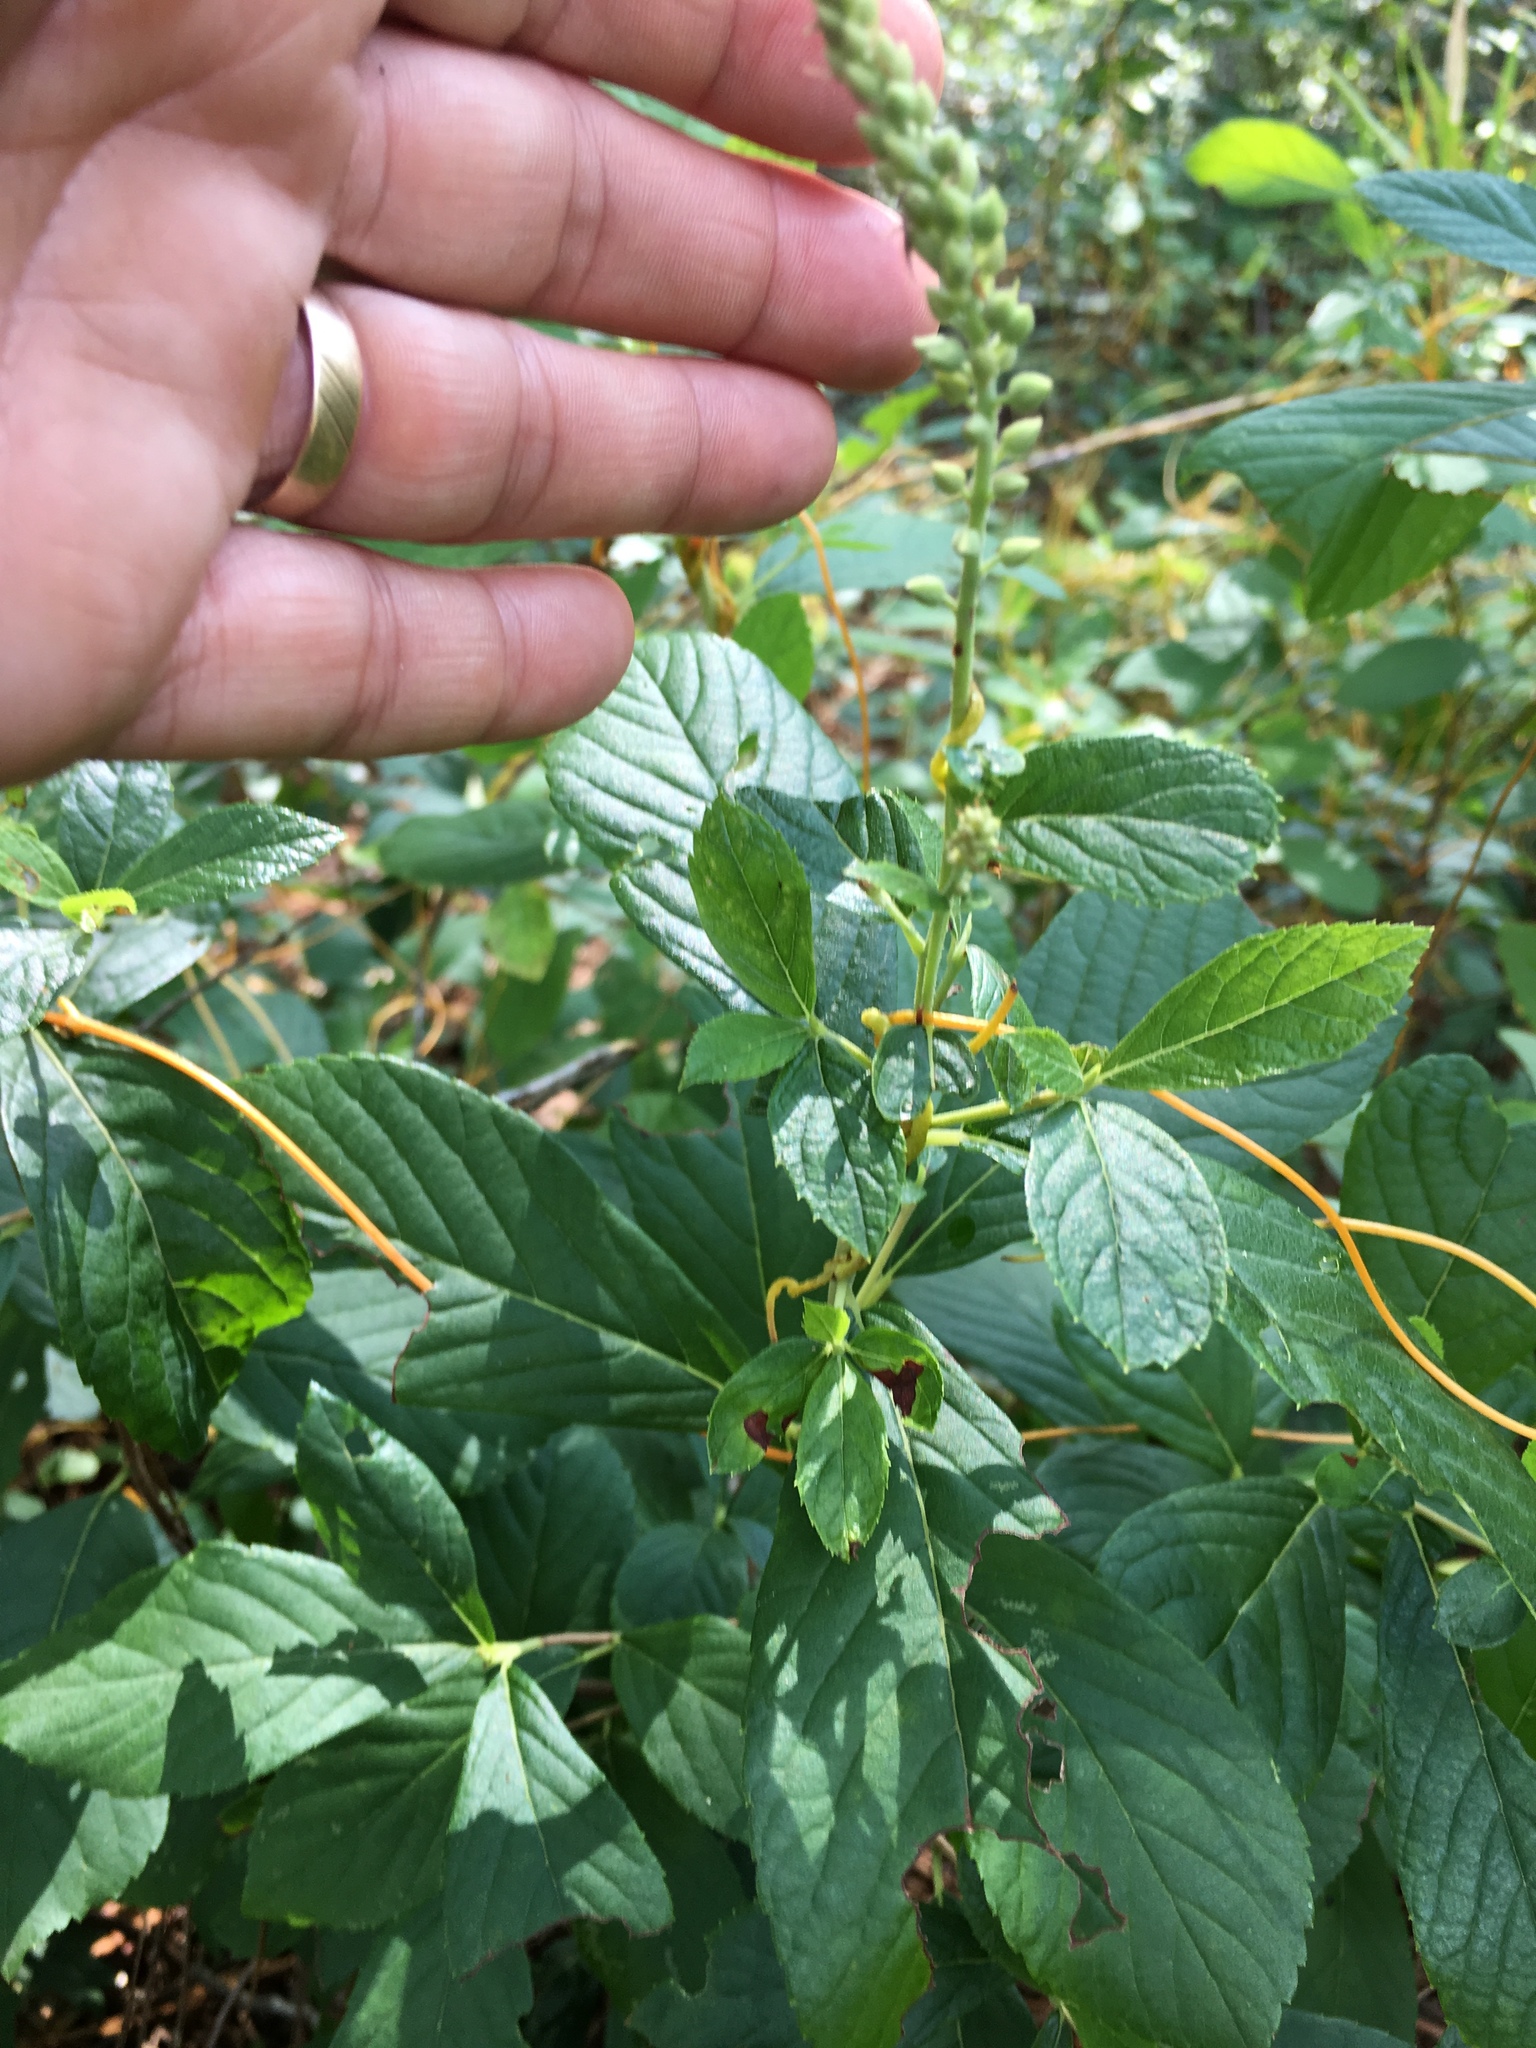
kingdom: Plantae
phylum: Tracheophyta
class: Magnoliopsida
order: Ericales
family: Clethraceae
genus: Clethra
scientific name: Clethra alnifolia
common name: Sweet pepperbush
